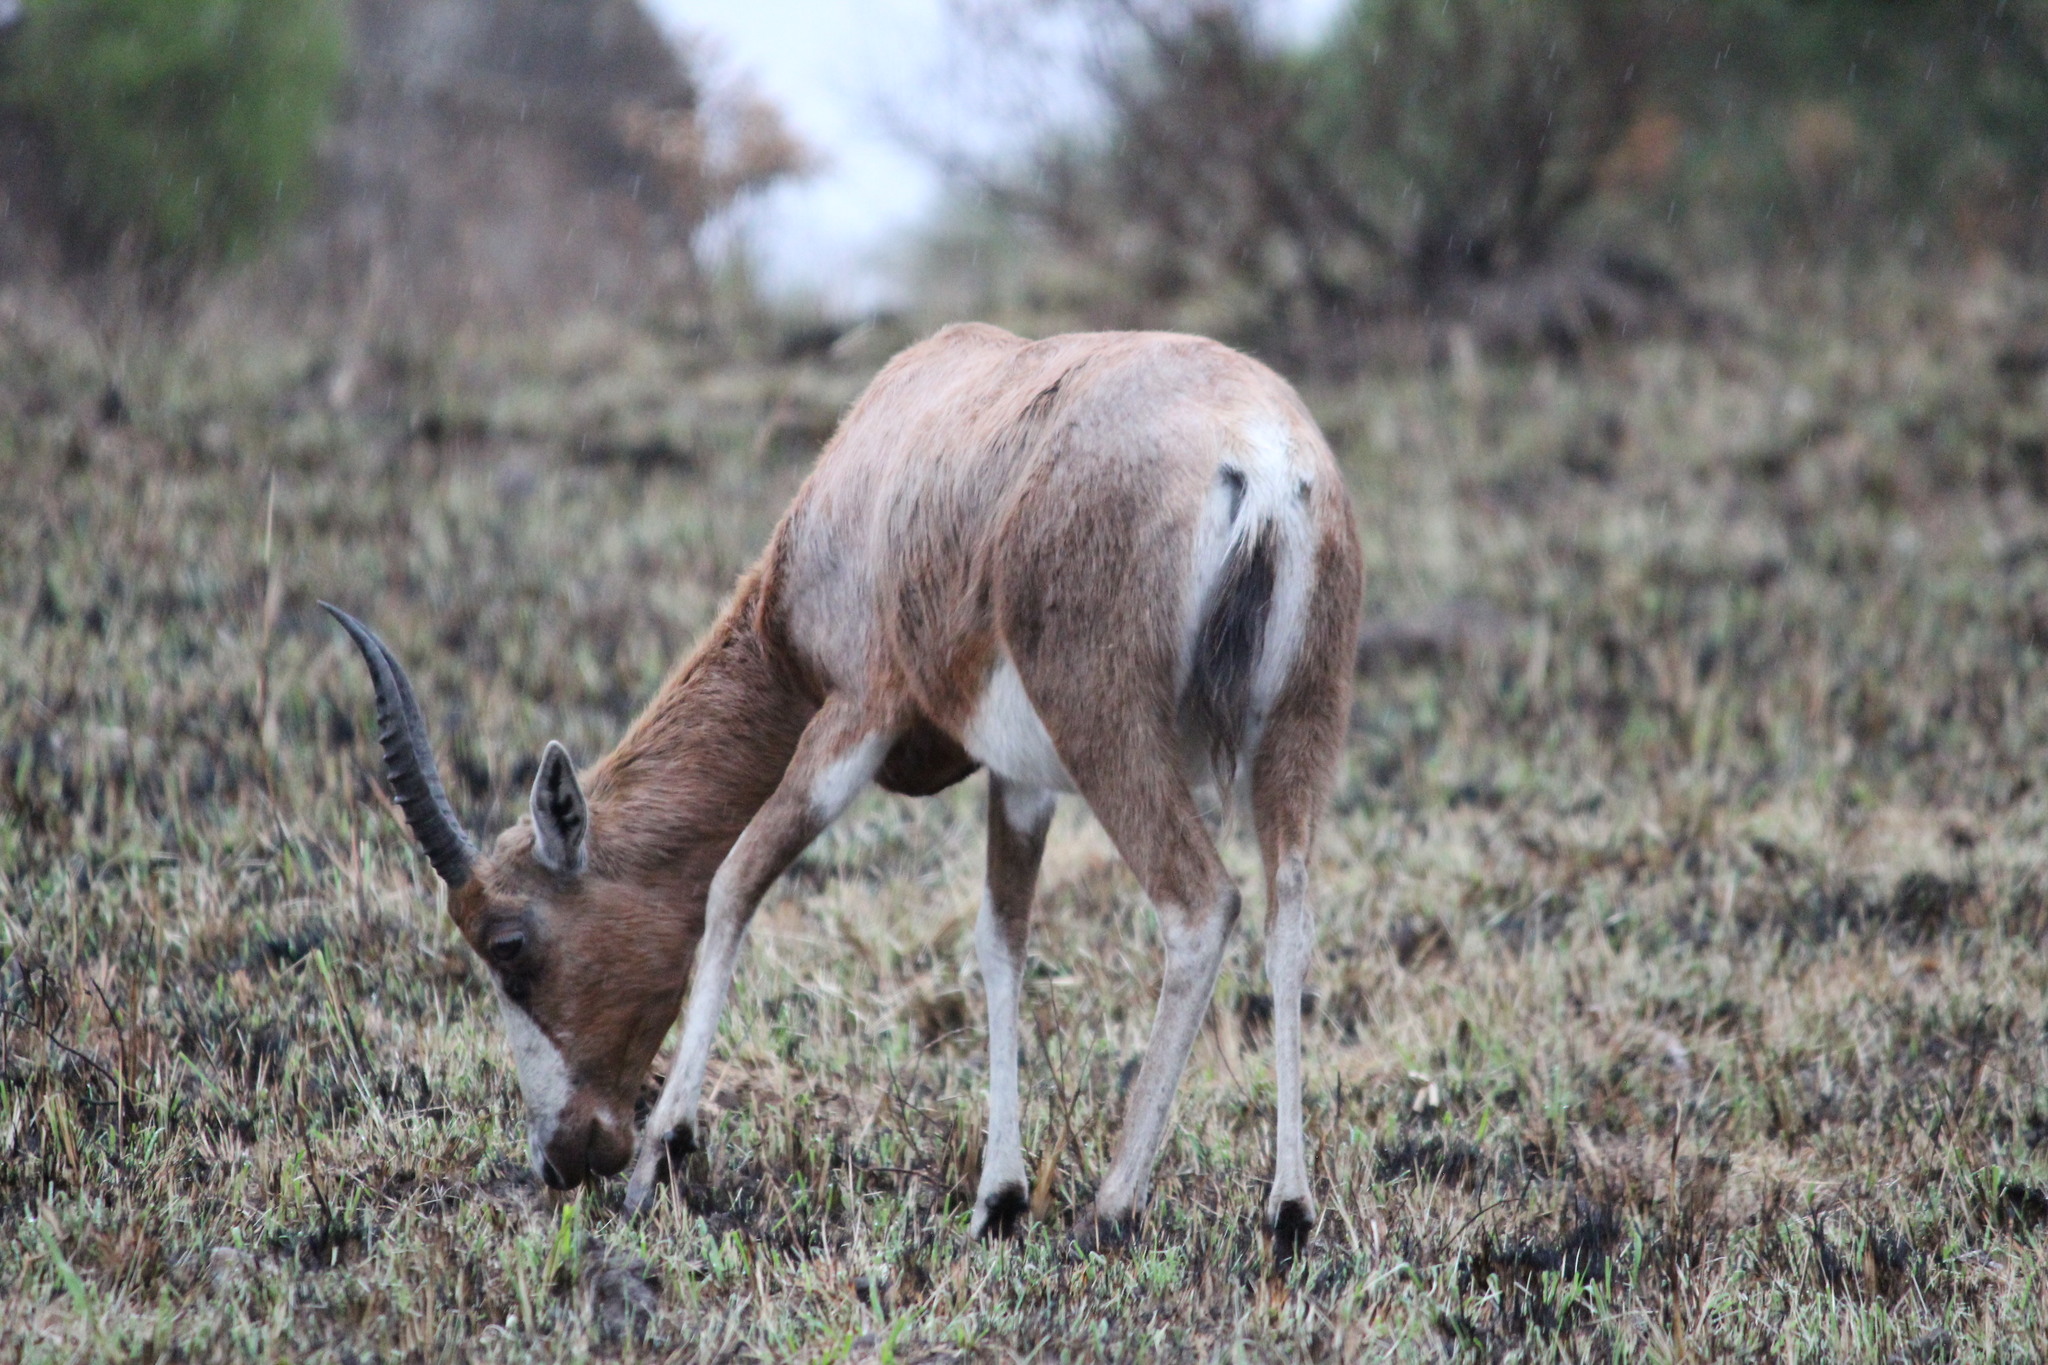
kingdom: Animalia
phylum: Chordata
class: Mammalia
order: Artiodactyla
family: Bovidae
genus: Damaliscus
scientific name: Damaliscus pygargus
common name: Bontebok
